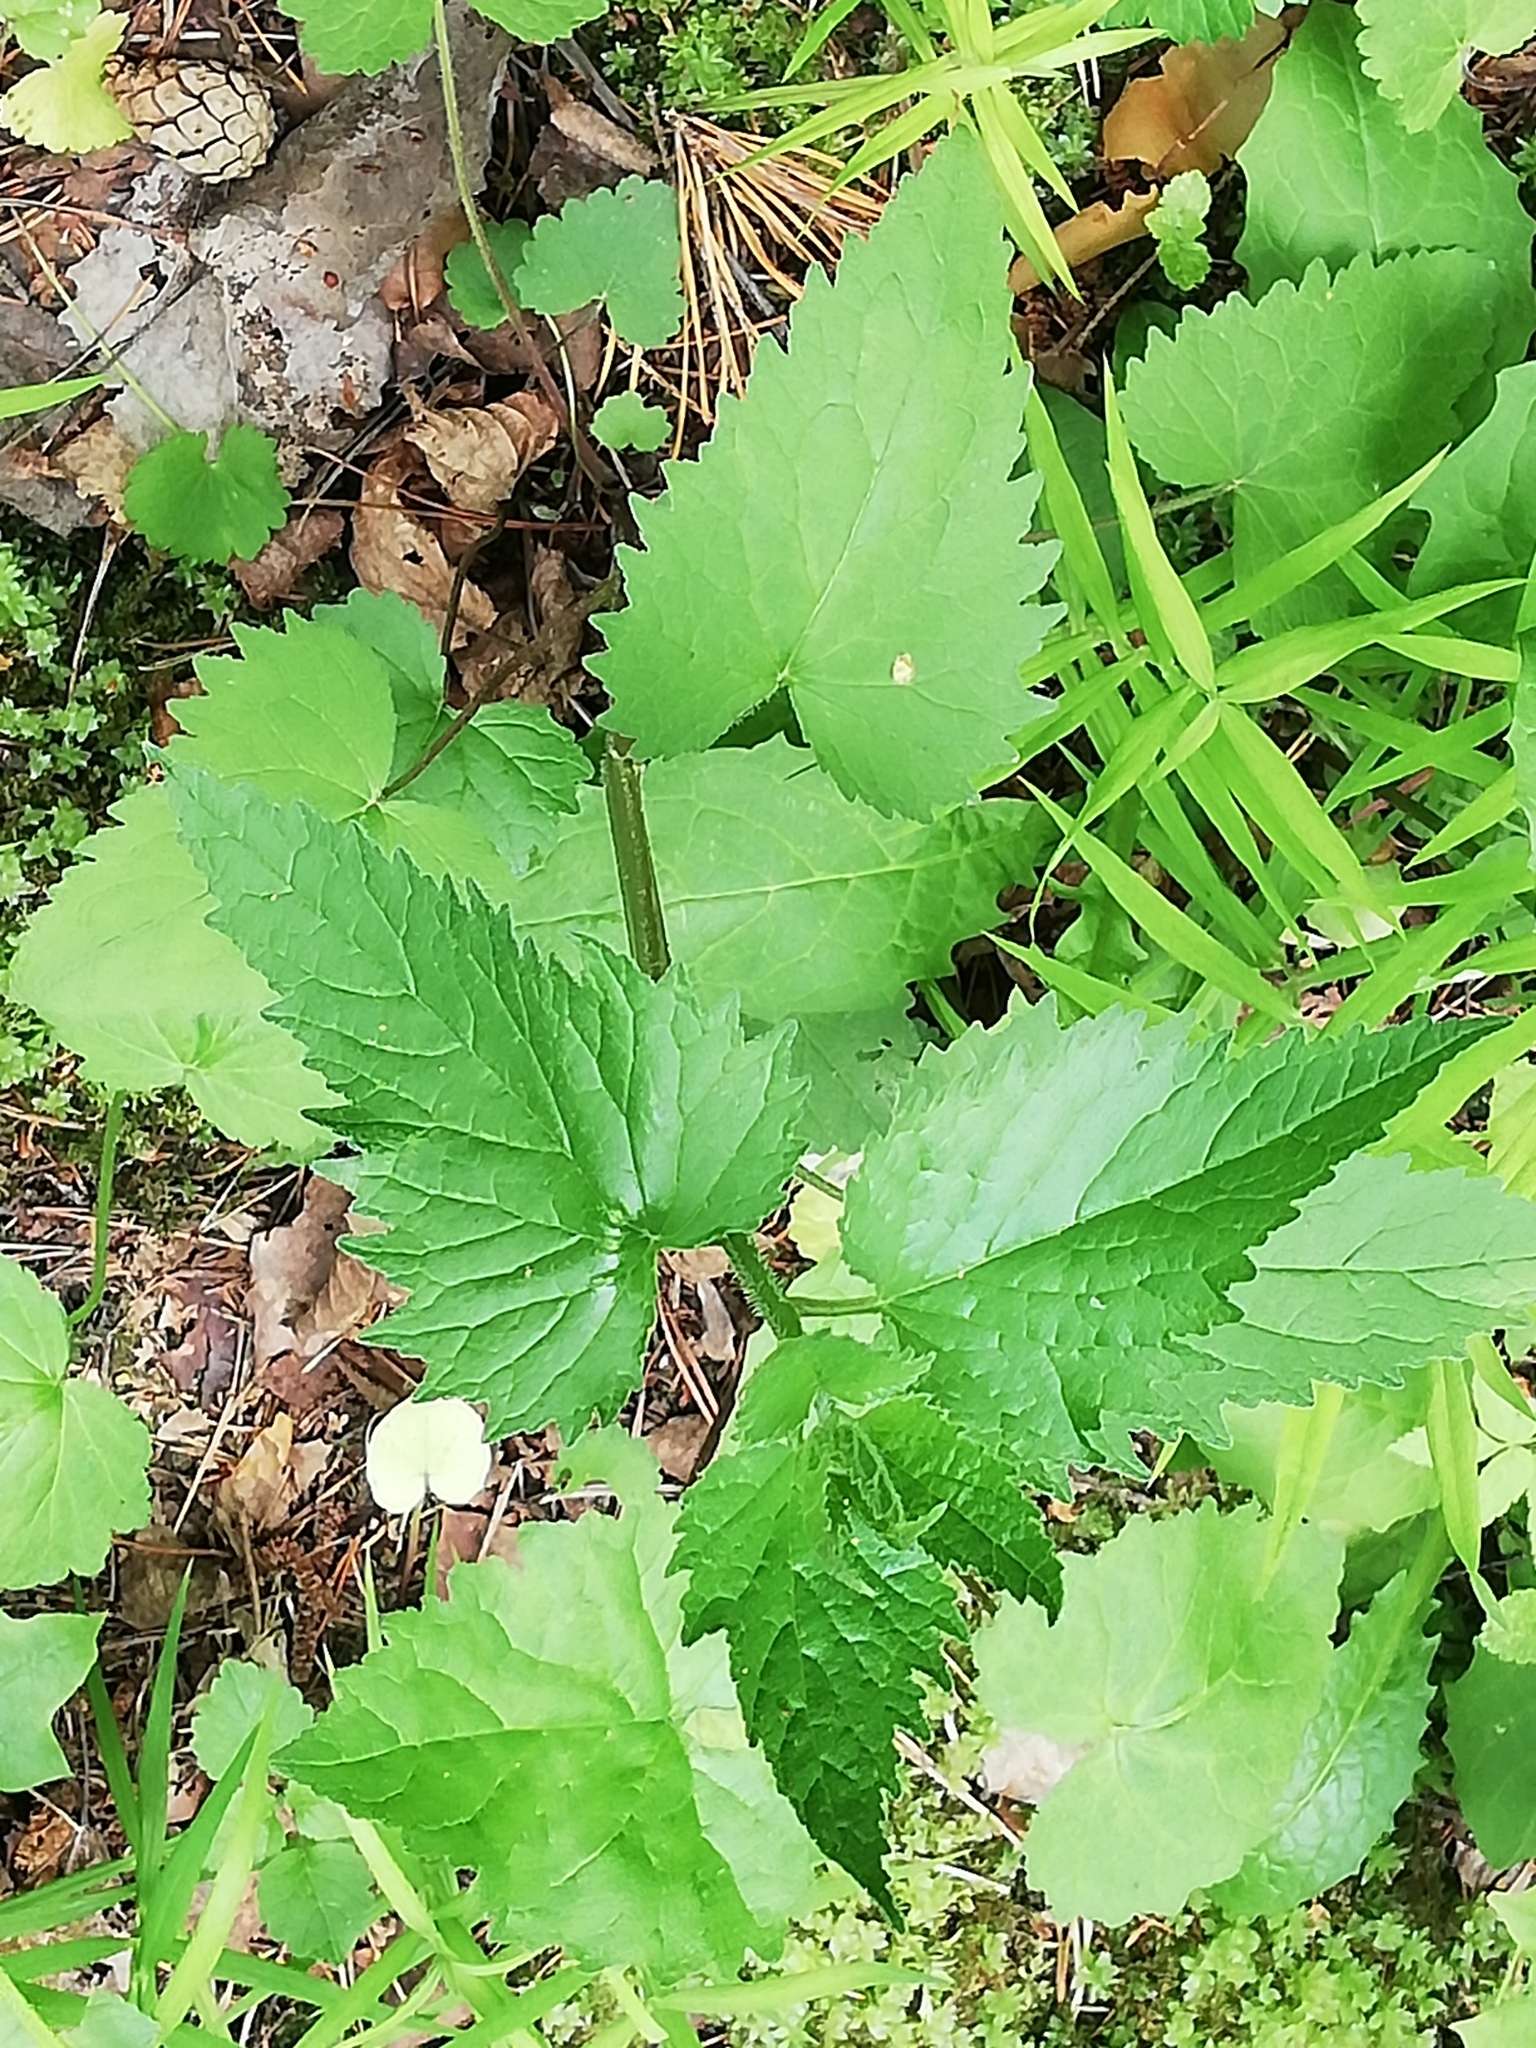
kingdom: Plantae
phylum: Tracheophyta
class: Magnoliopsida
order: Asterales
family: Campanulaceae
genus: Campanula
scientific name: Campanula trachelium
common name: Nettle-leaved bellflower
